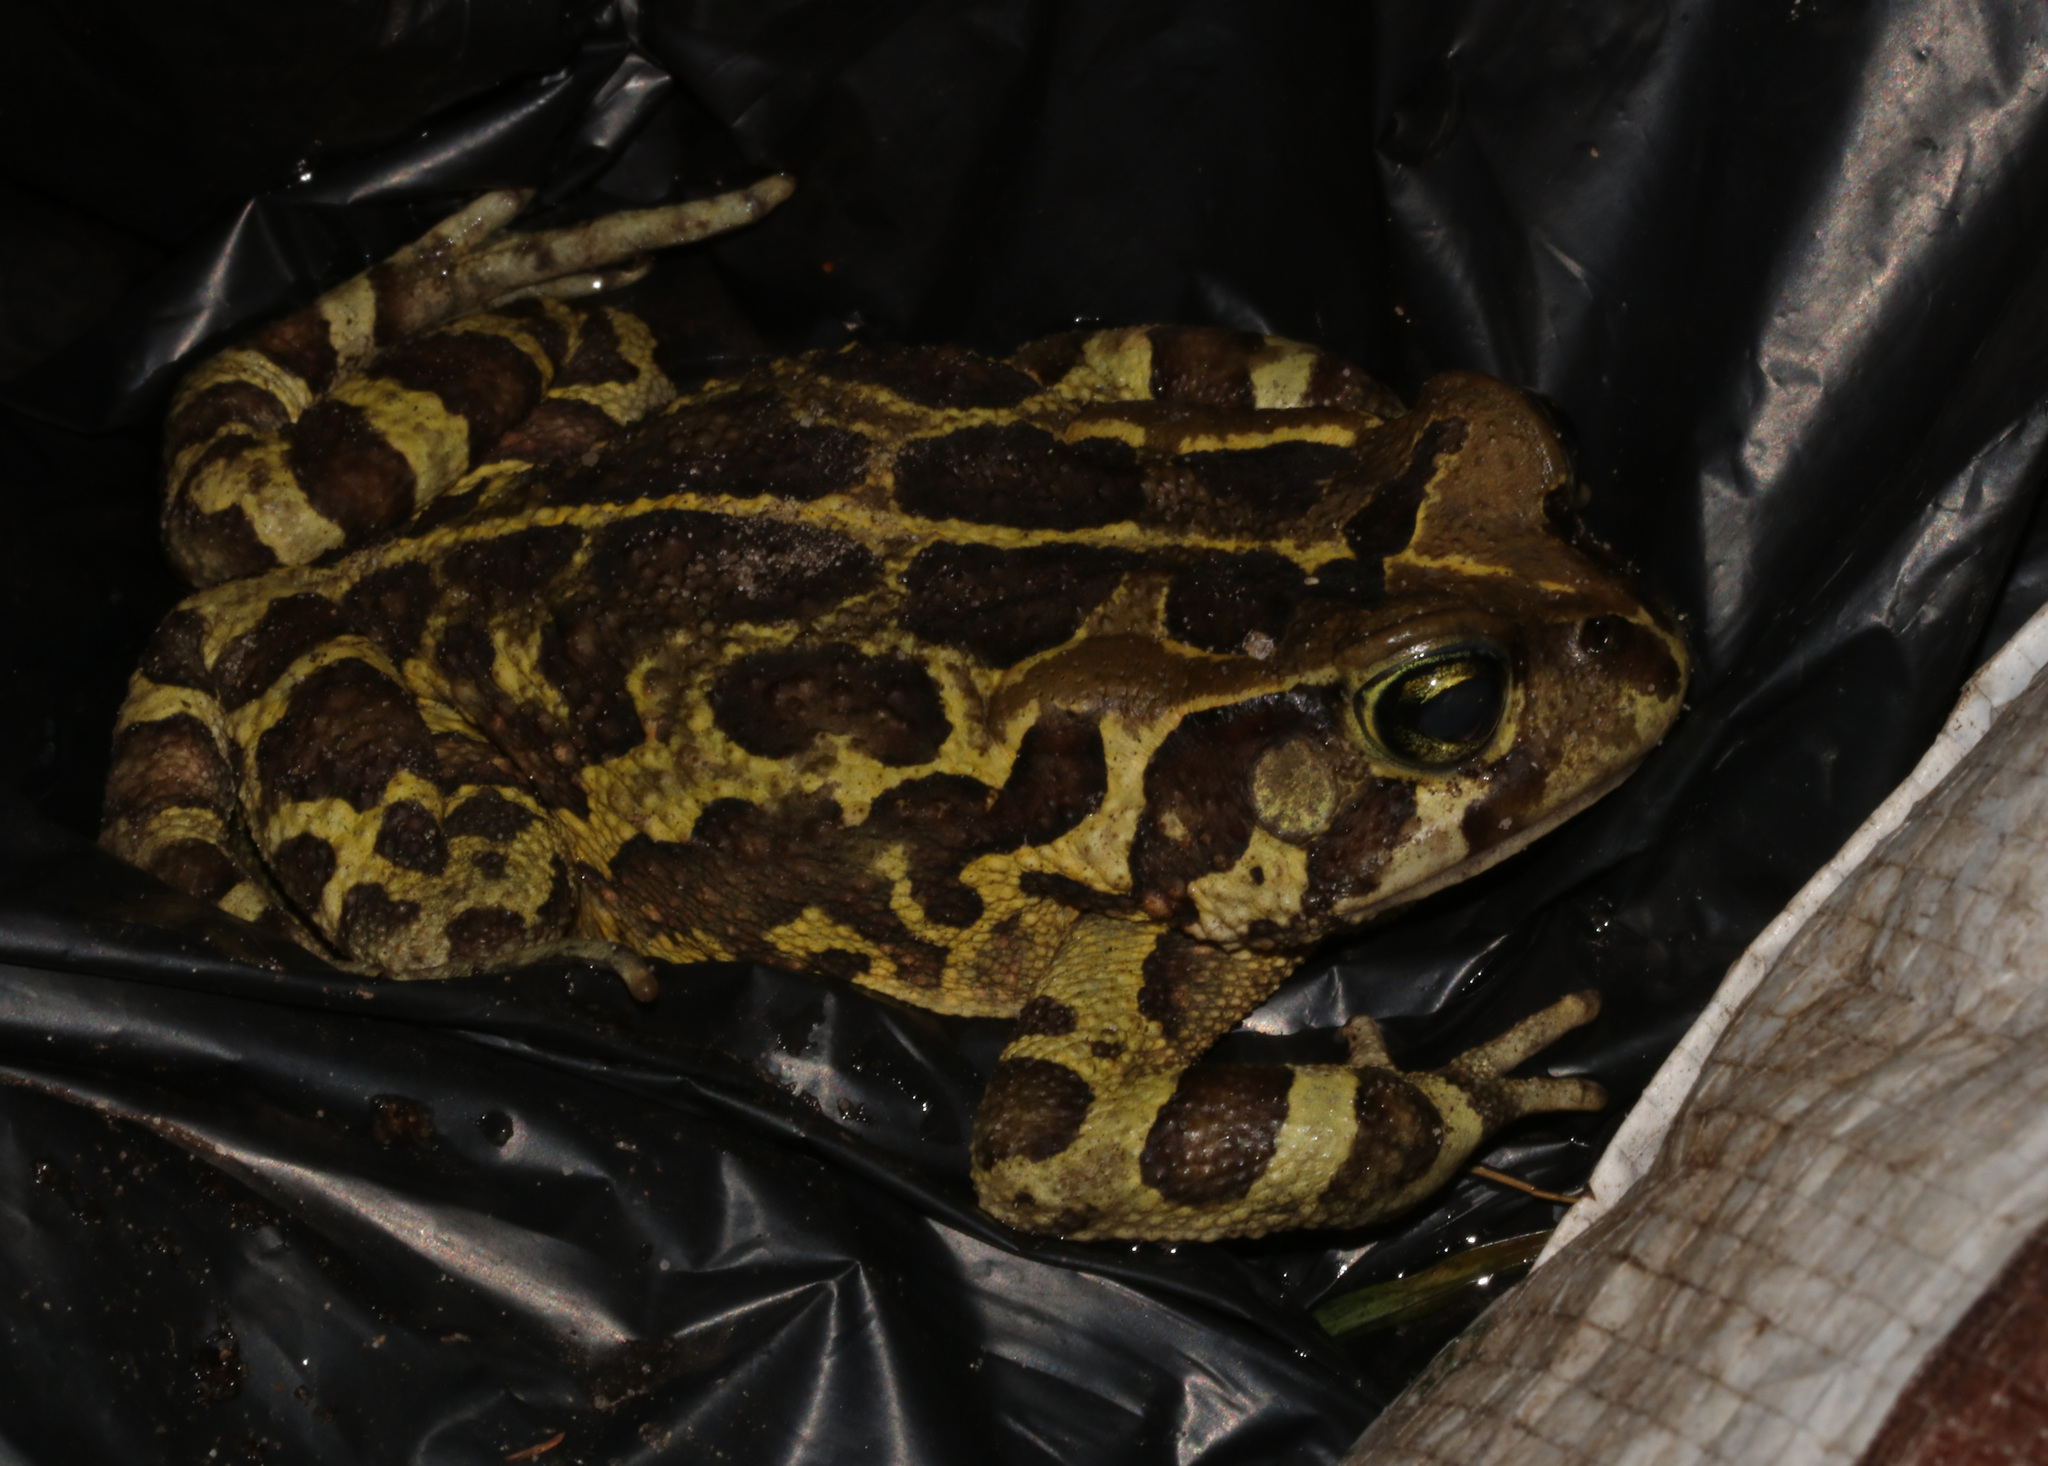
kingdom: Animalia
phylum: Chordata
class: Amphibia
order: Anura
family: Bufonidae
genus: Sclerophrys
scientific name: Sclerophrys pantherina
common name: Panther toad
